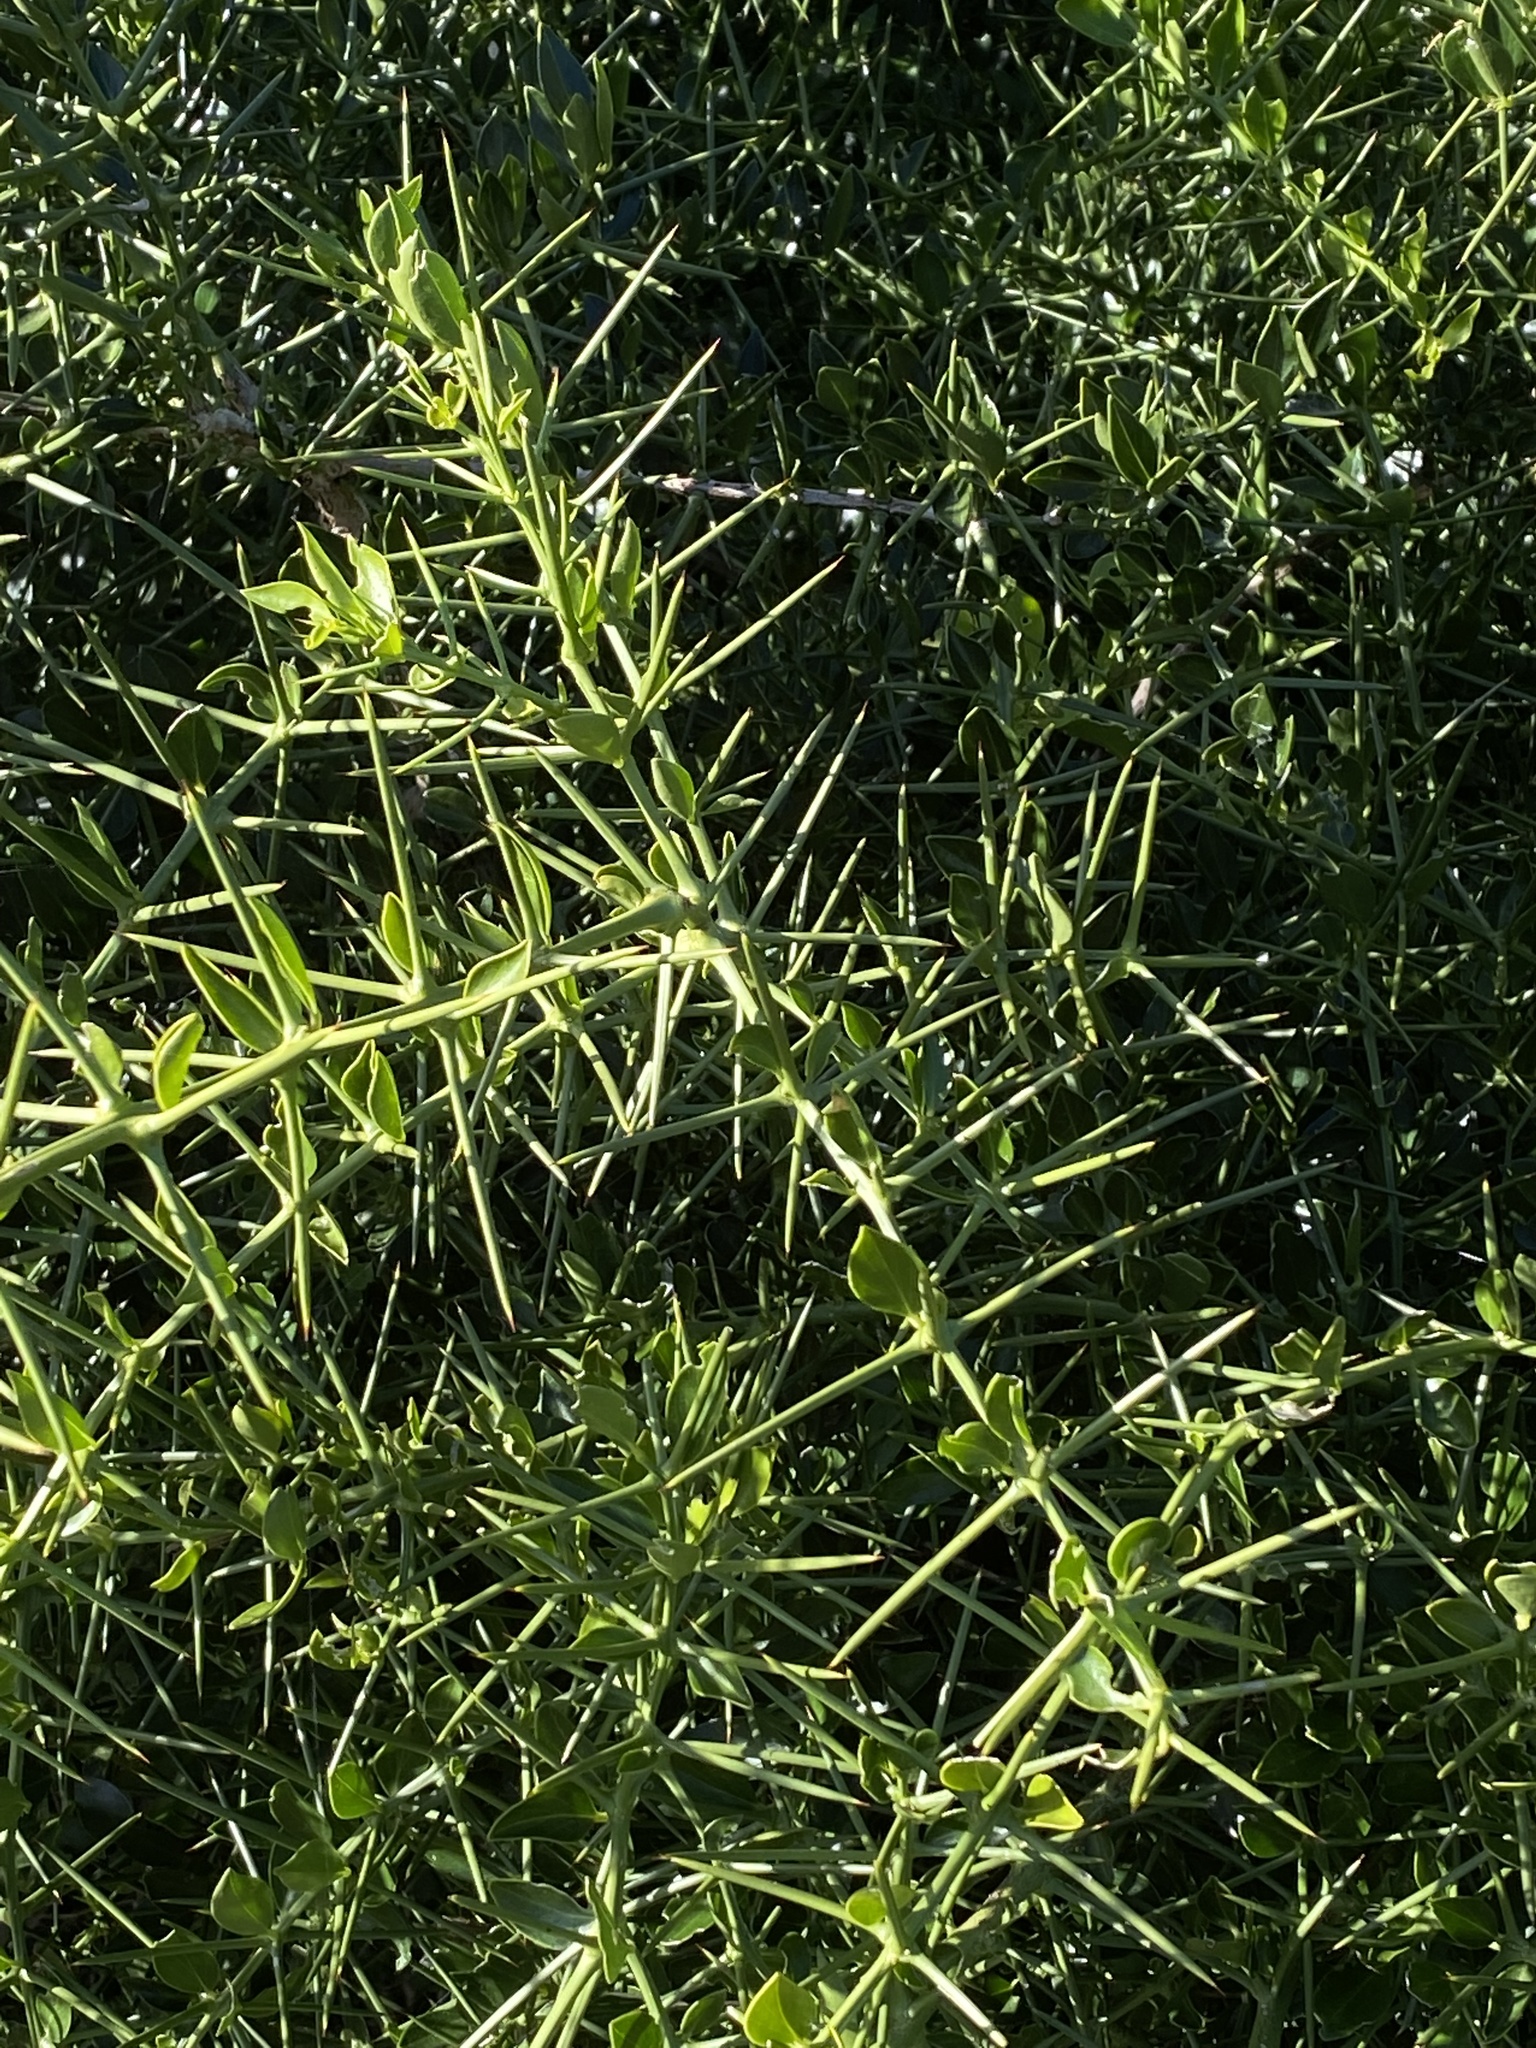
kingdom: Plantae
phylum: Tracheophyta
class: Magnoliopsida
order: Brassicales
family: Salvadoraceae
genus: Azima
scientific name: Azima tetracantha
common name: Needle bush
